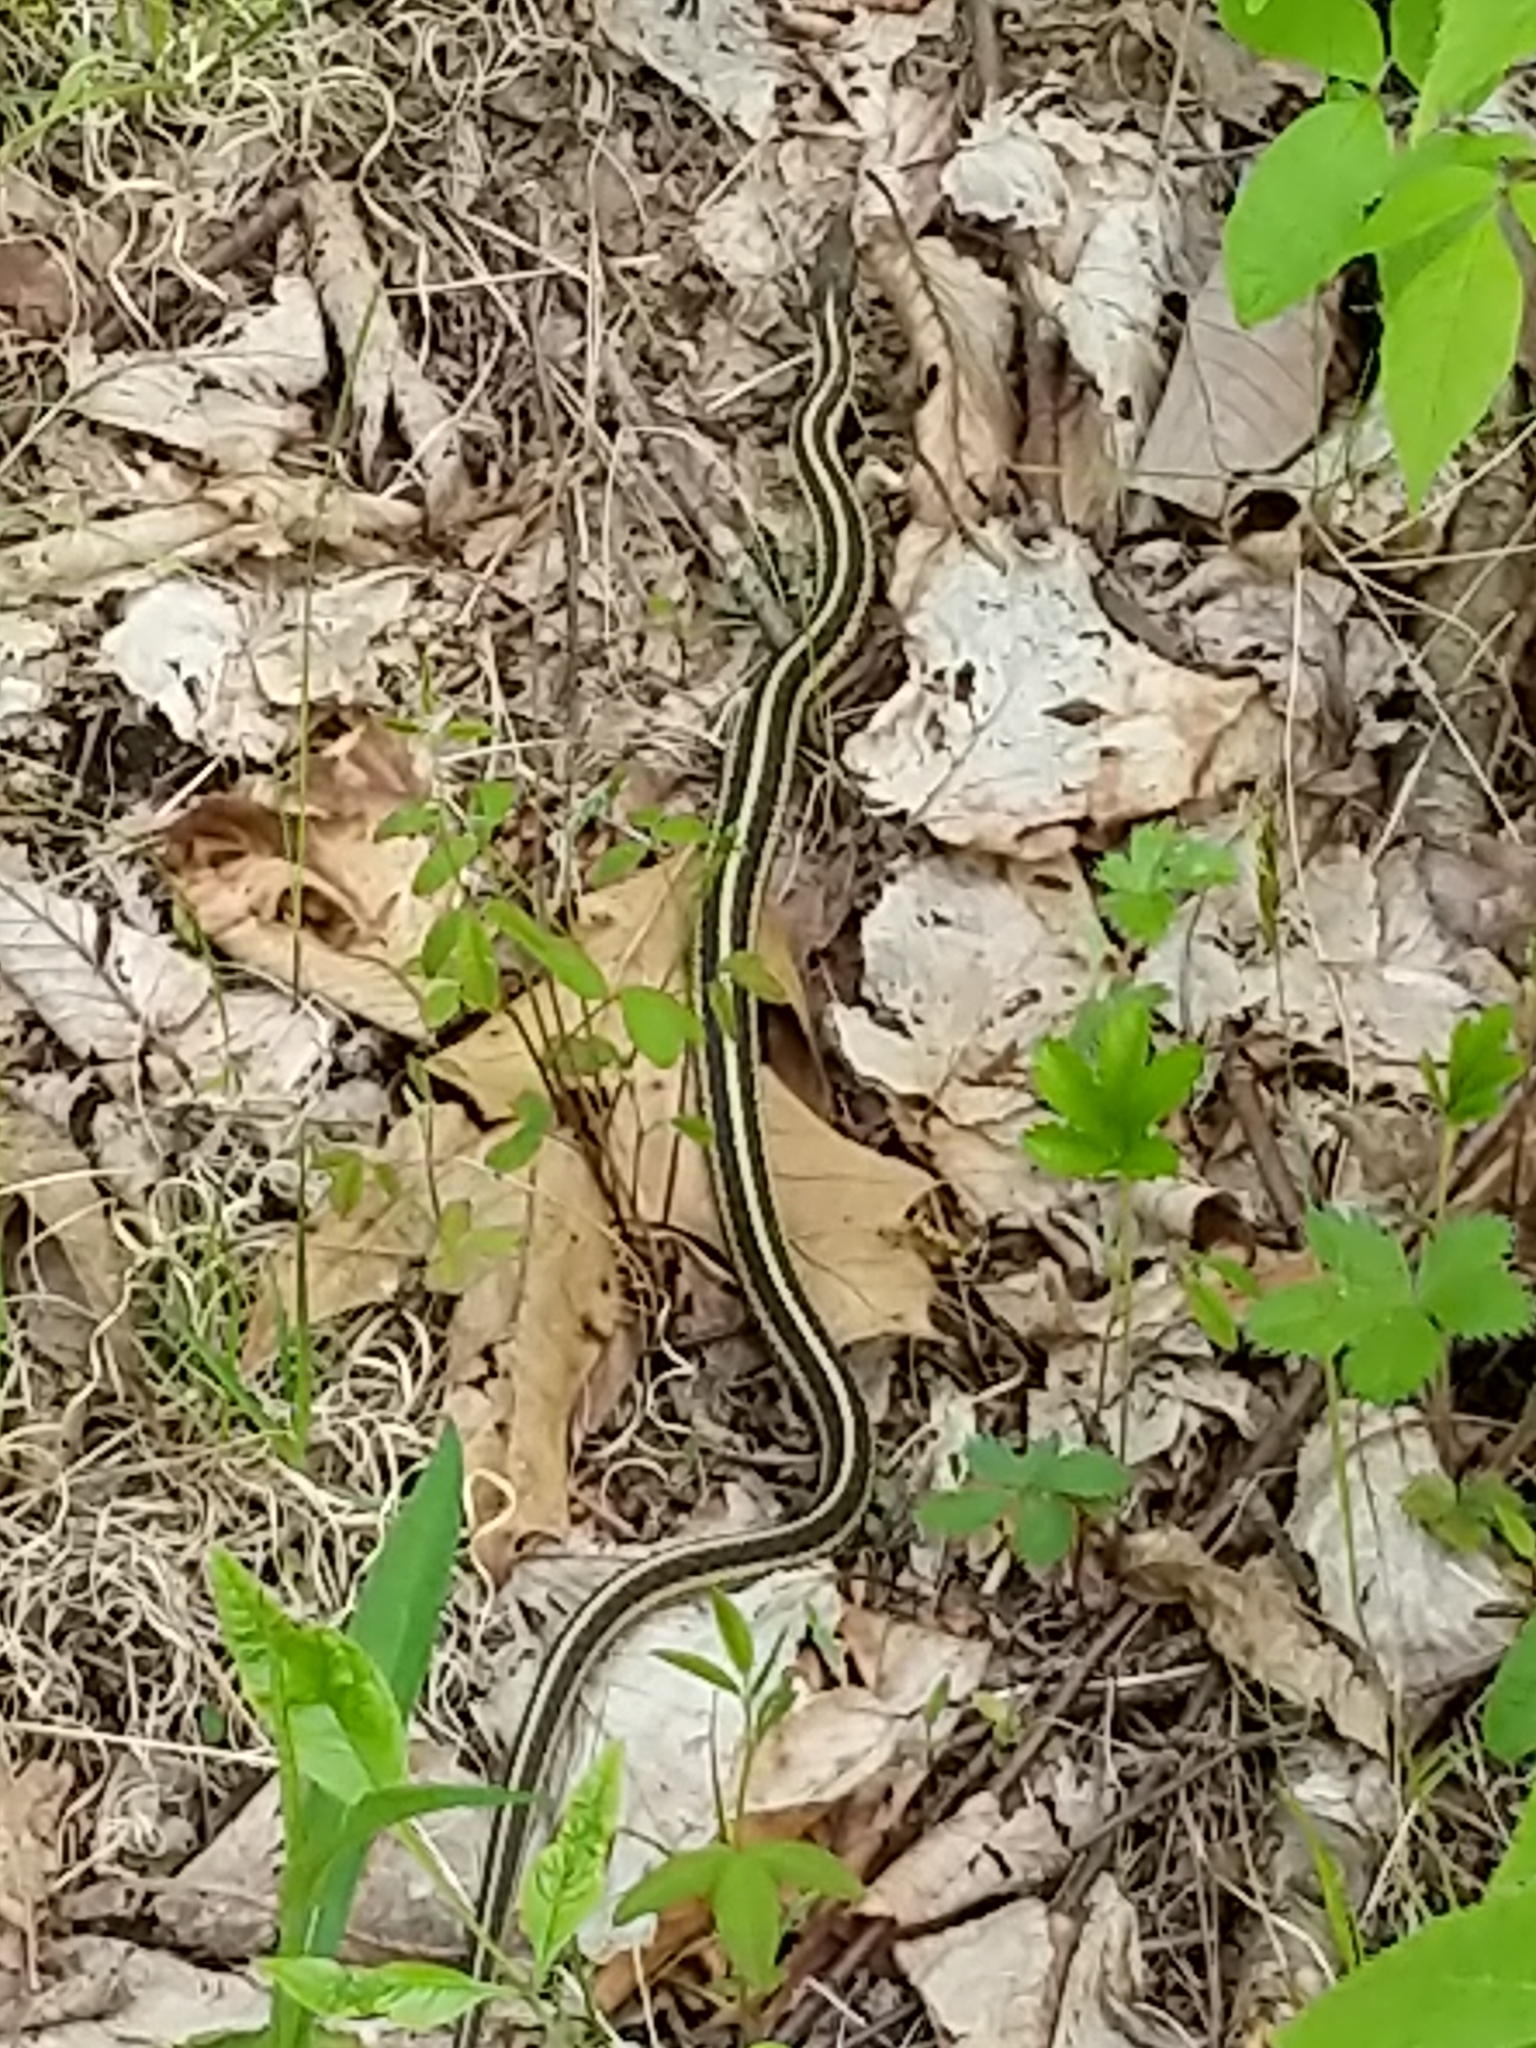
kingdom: Animalia
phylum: Chordata
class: Squamata
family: Colubridae
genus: Thamnophis
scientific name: Thamnophis saurita
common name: Eastern ribbonsnake
